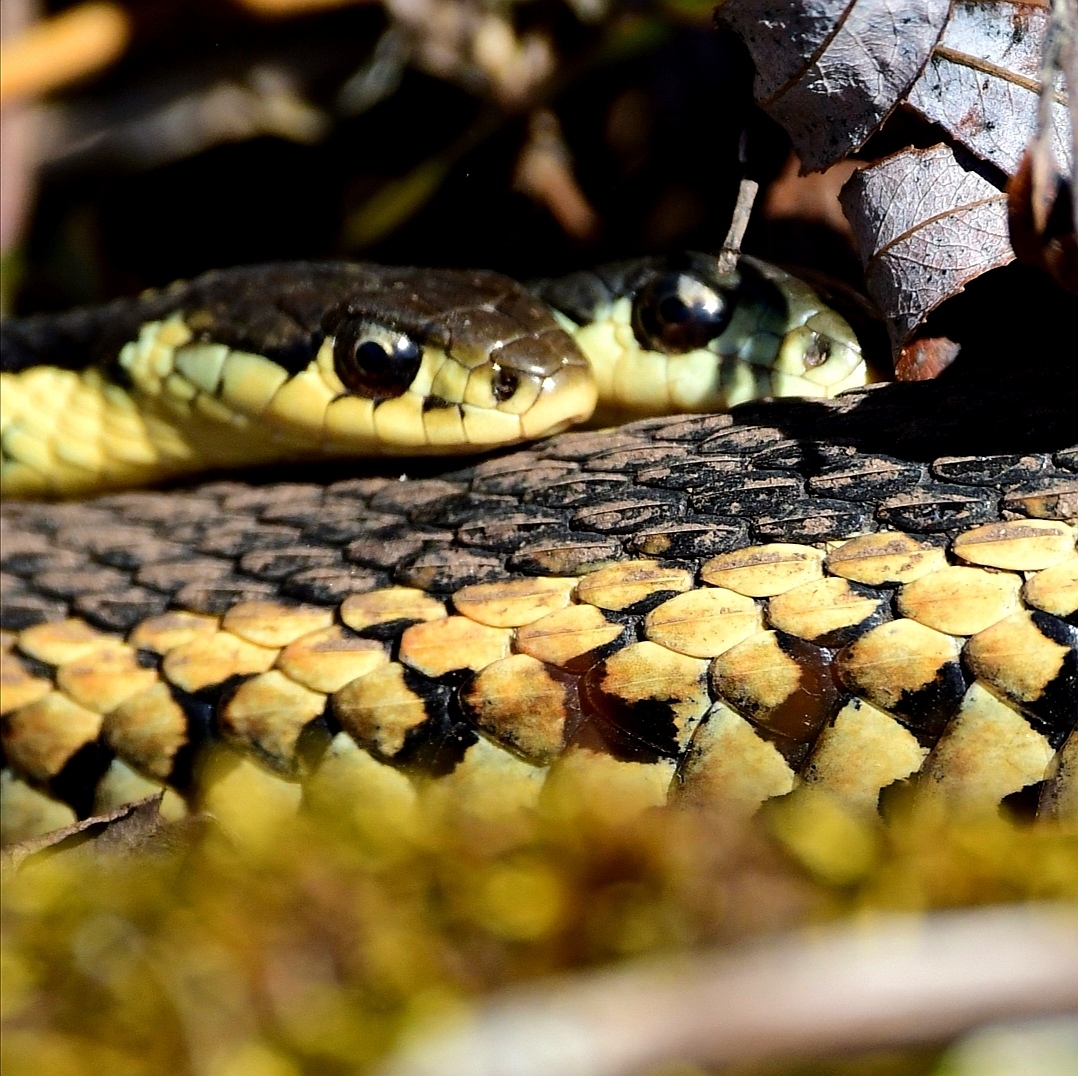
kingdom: Animalia
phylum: Chordata
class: Squamata
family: Colubridae
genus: Thamnophis
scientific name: Thamnophis sirtalis
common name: Common garter snake
